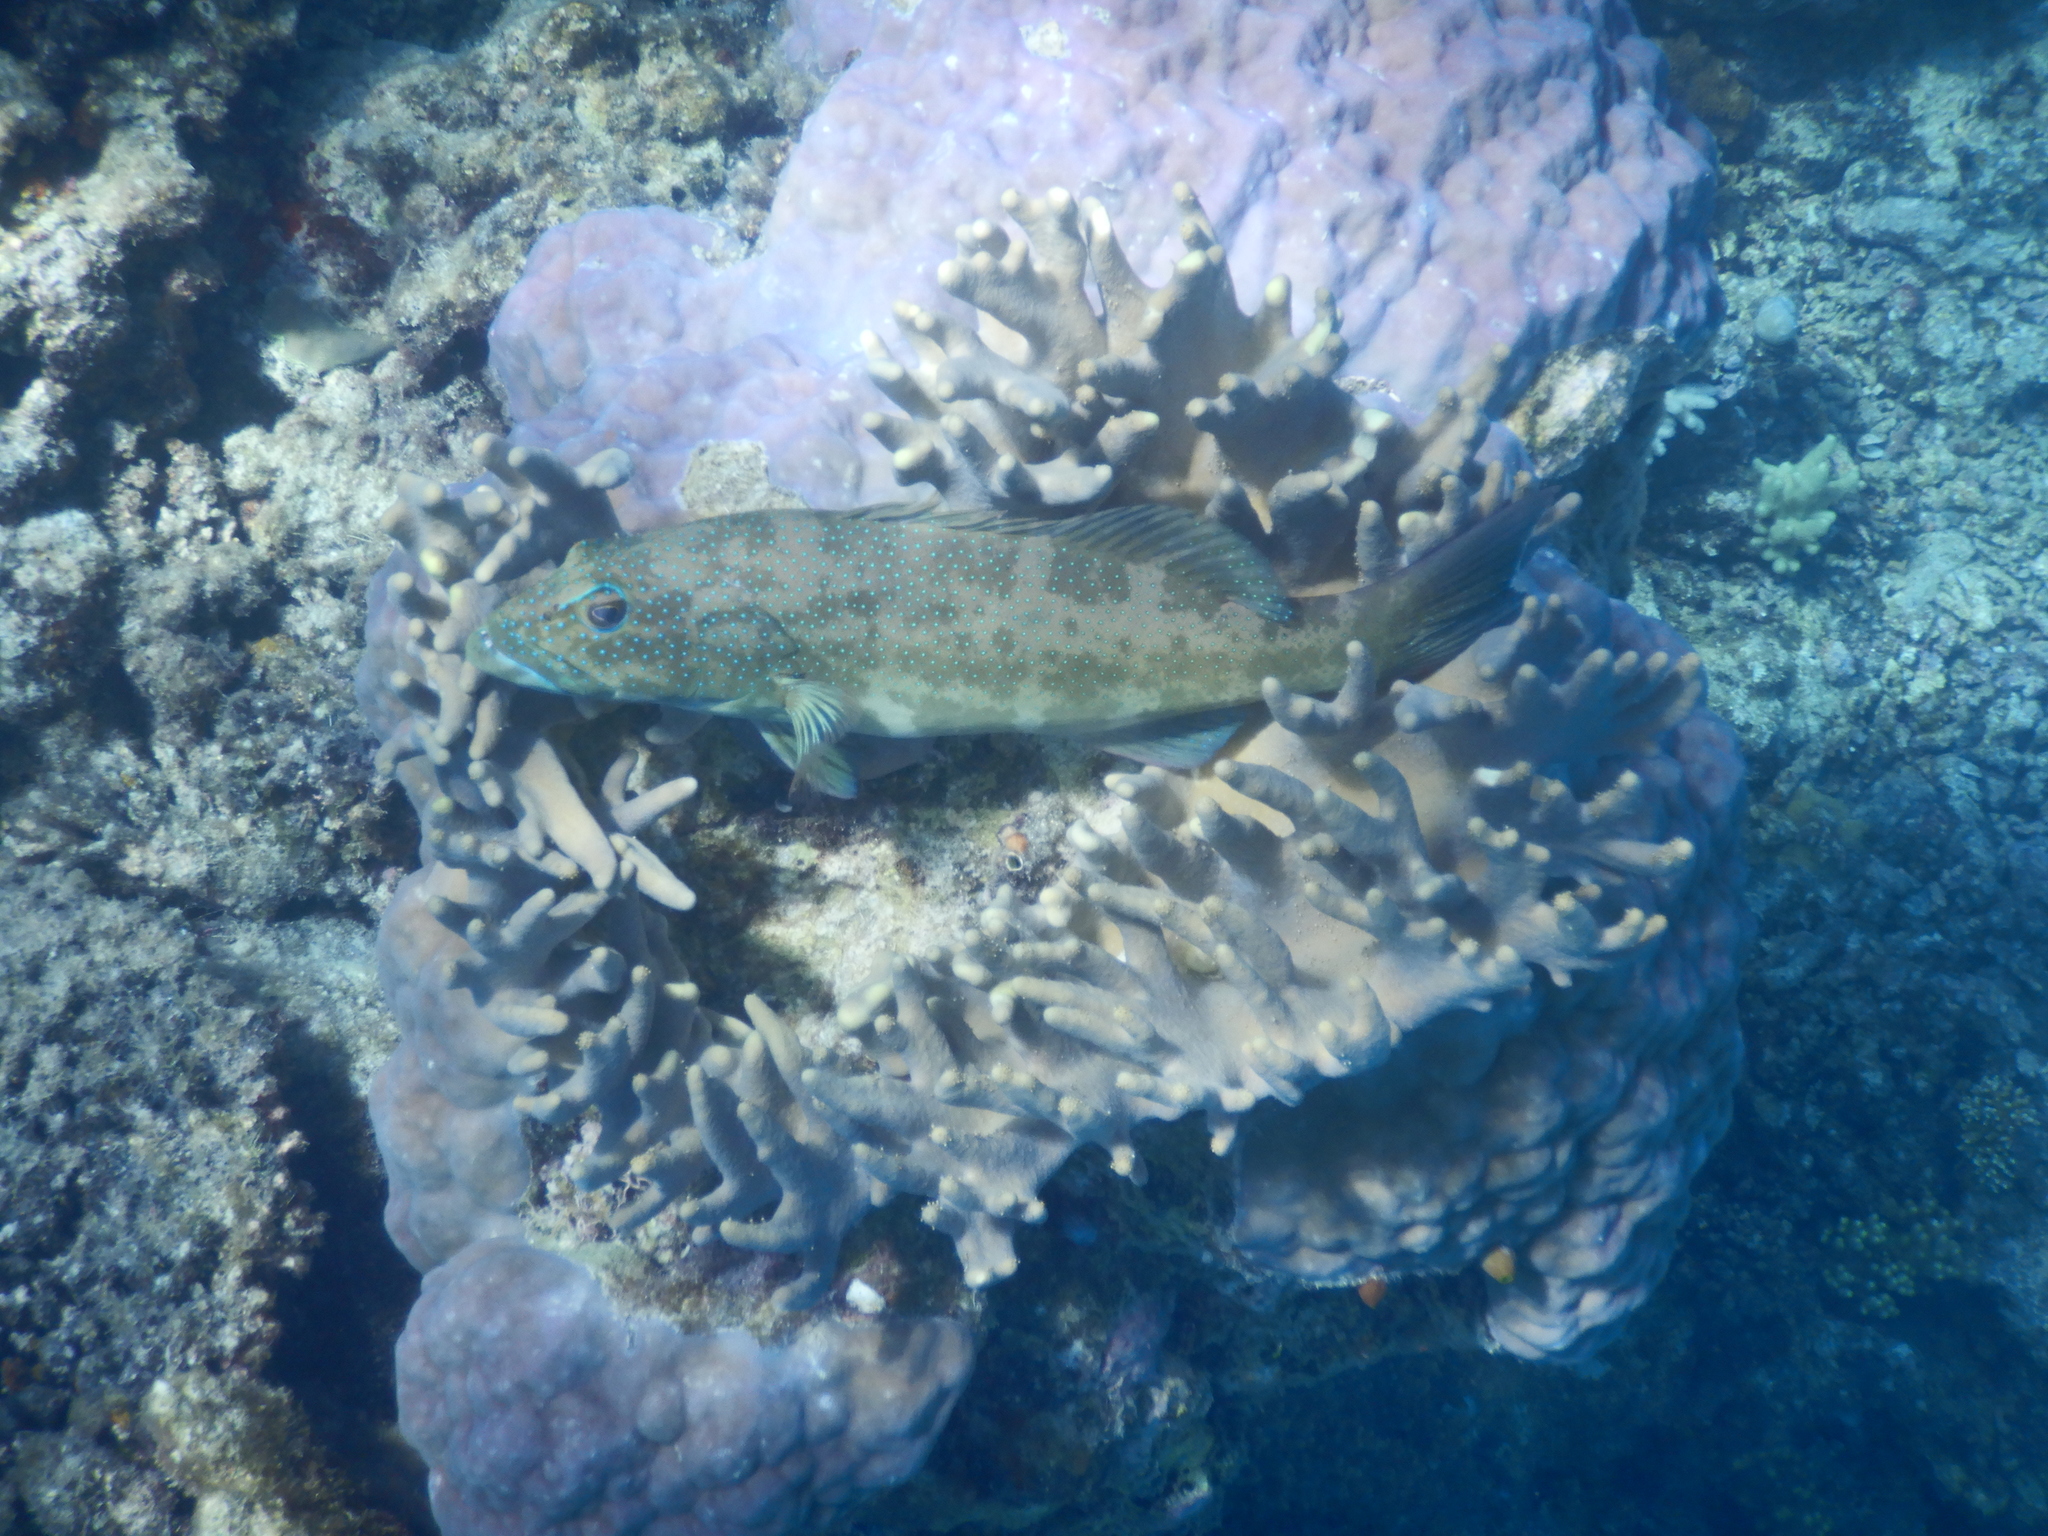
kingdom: Animalia
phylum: Chordata
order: Perciformes
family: Serranidae
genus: Plectropomus
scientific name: Plectropomus leopardus
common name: Coral trout
